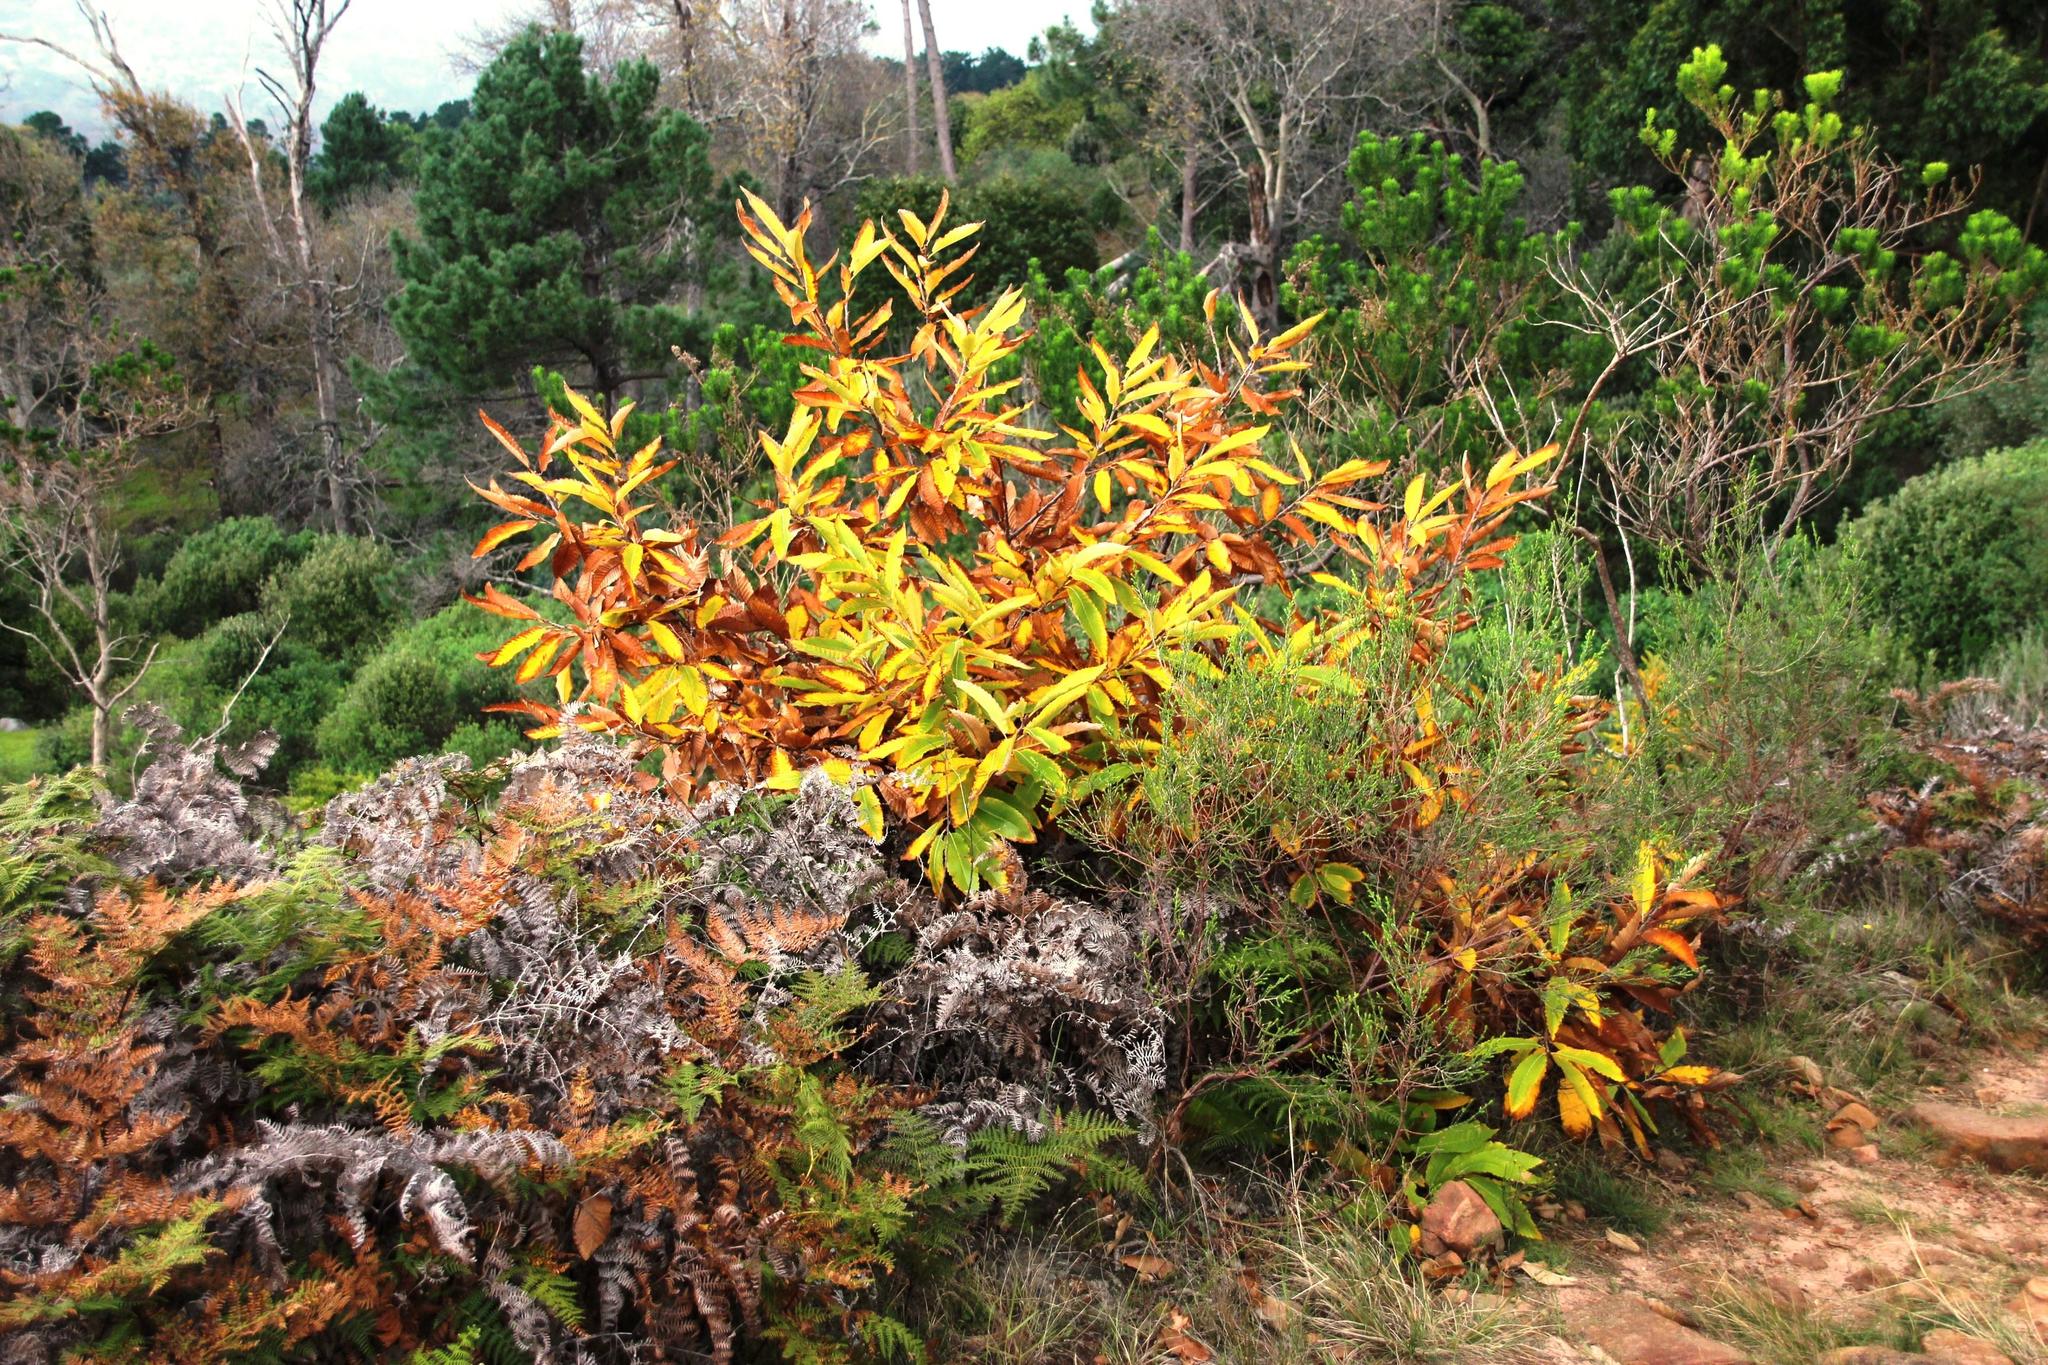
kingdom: Plantae
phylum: Tracheophyta
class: Magnoliopsida
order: Fagales
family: Fagaceae
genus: Castanea
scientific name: Castanea sativa
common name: Sweet chestnut
